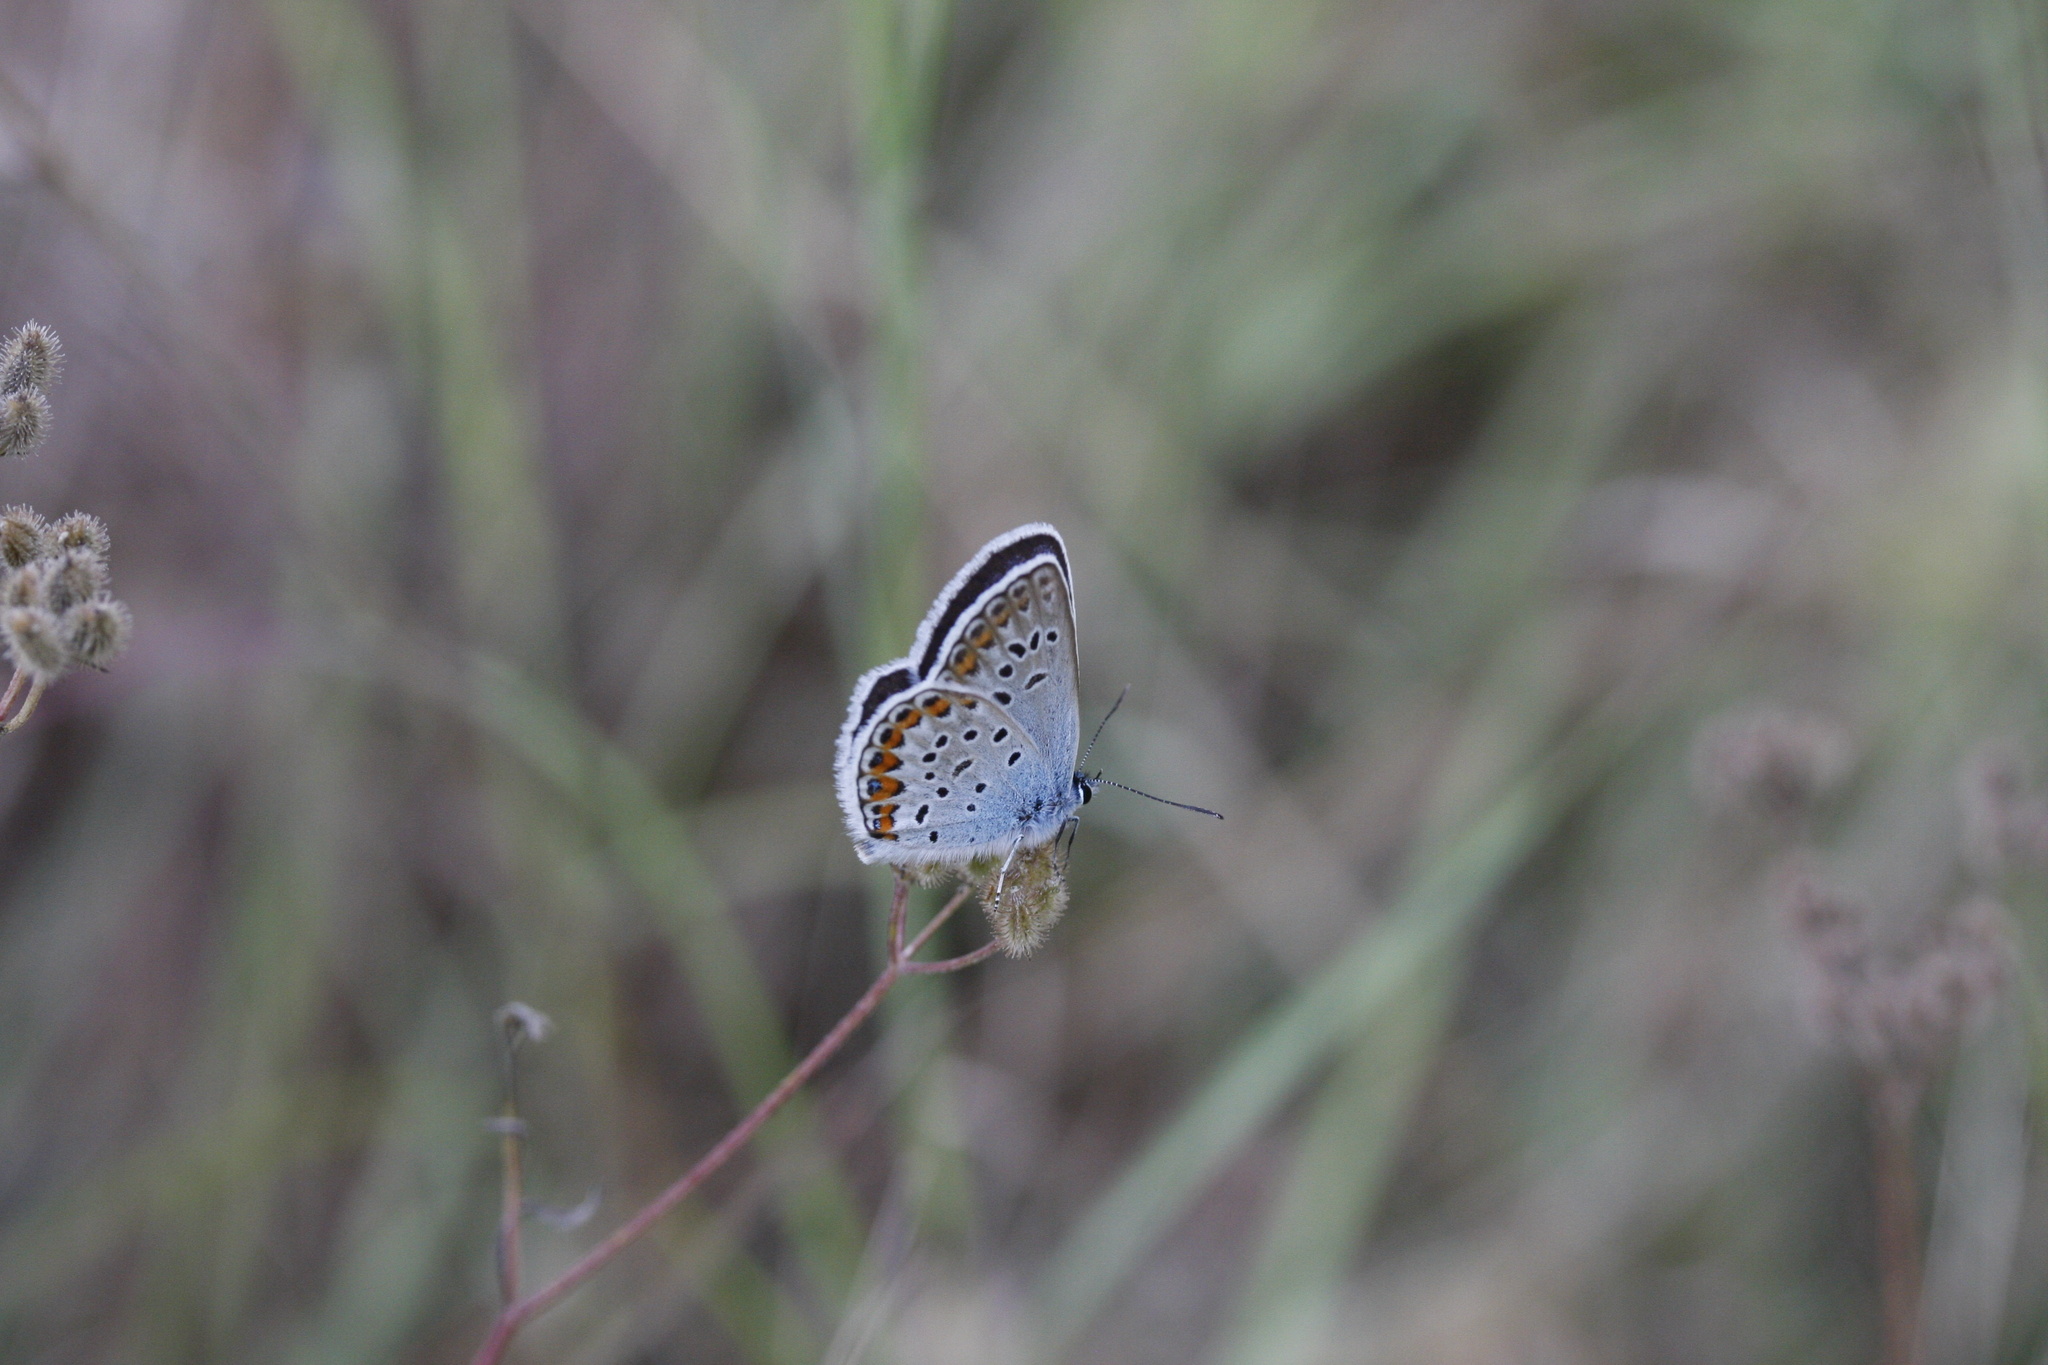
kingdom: Animalia
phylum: Arthropoda
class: Insecta
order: Lepidoptera
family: Lycaenidae
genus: Plebejus
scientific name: Plebejus argus
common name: Silver-studded blue
